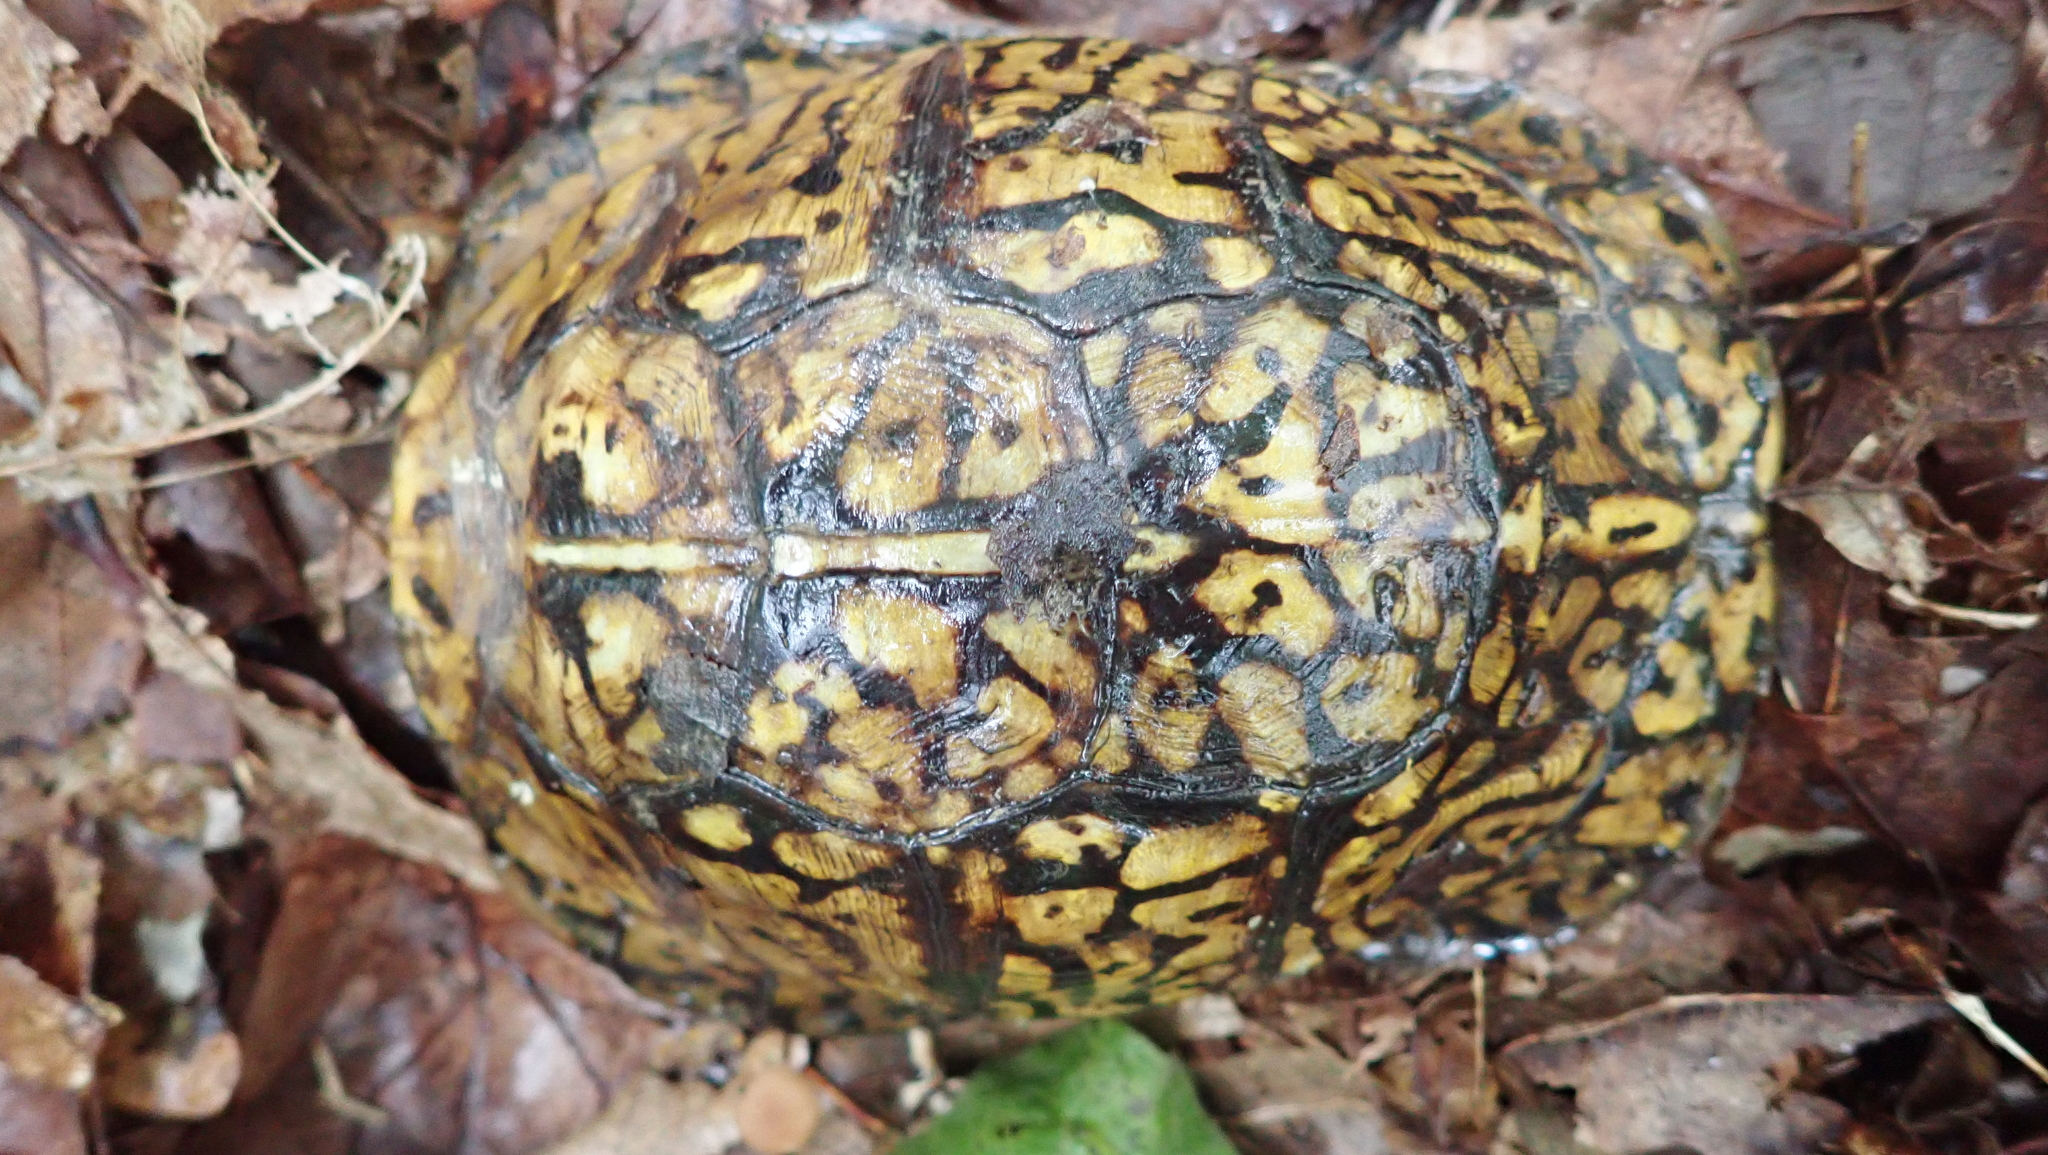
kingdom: Animalia
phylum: Chordata
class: Testudines
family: Emydidae
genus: Terrapene
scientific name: Terrapene carolina
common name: Common box turtle
